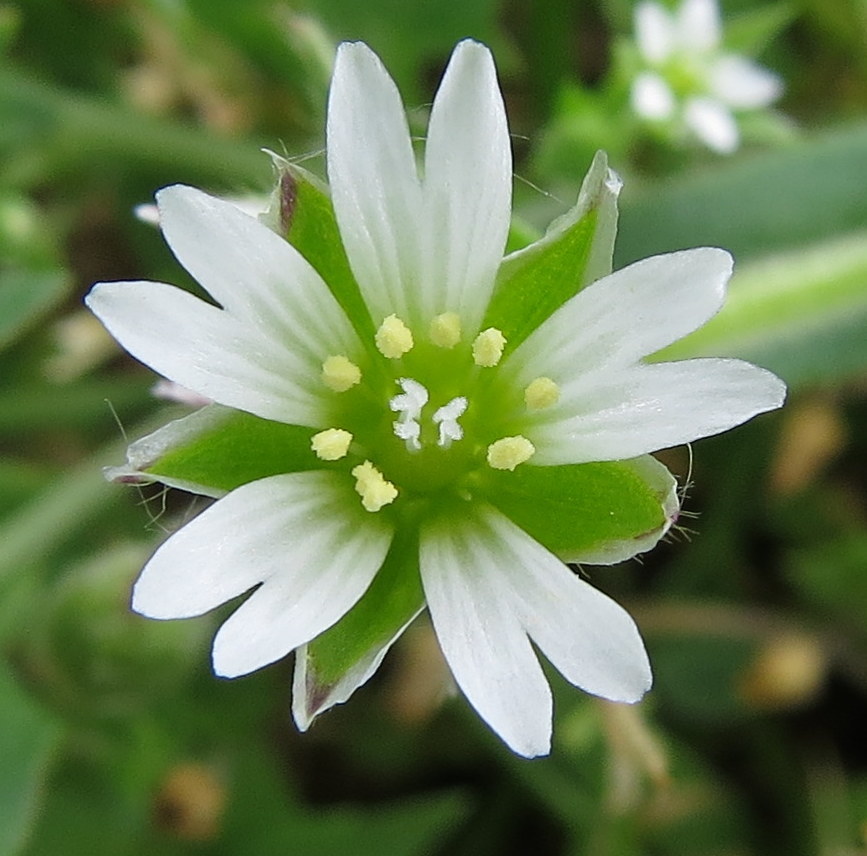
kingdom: Plantae
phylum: Tracheophyta
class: Magnoliopsida
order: Caryophyllales
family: Caryophyllaceae
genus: Cerastium
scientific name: Cerastium fontanum
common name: Common mouse-ear
